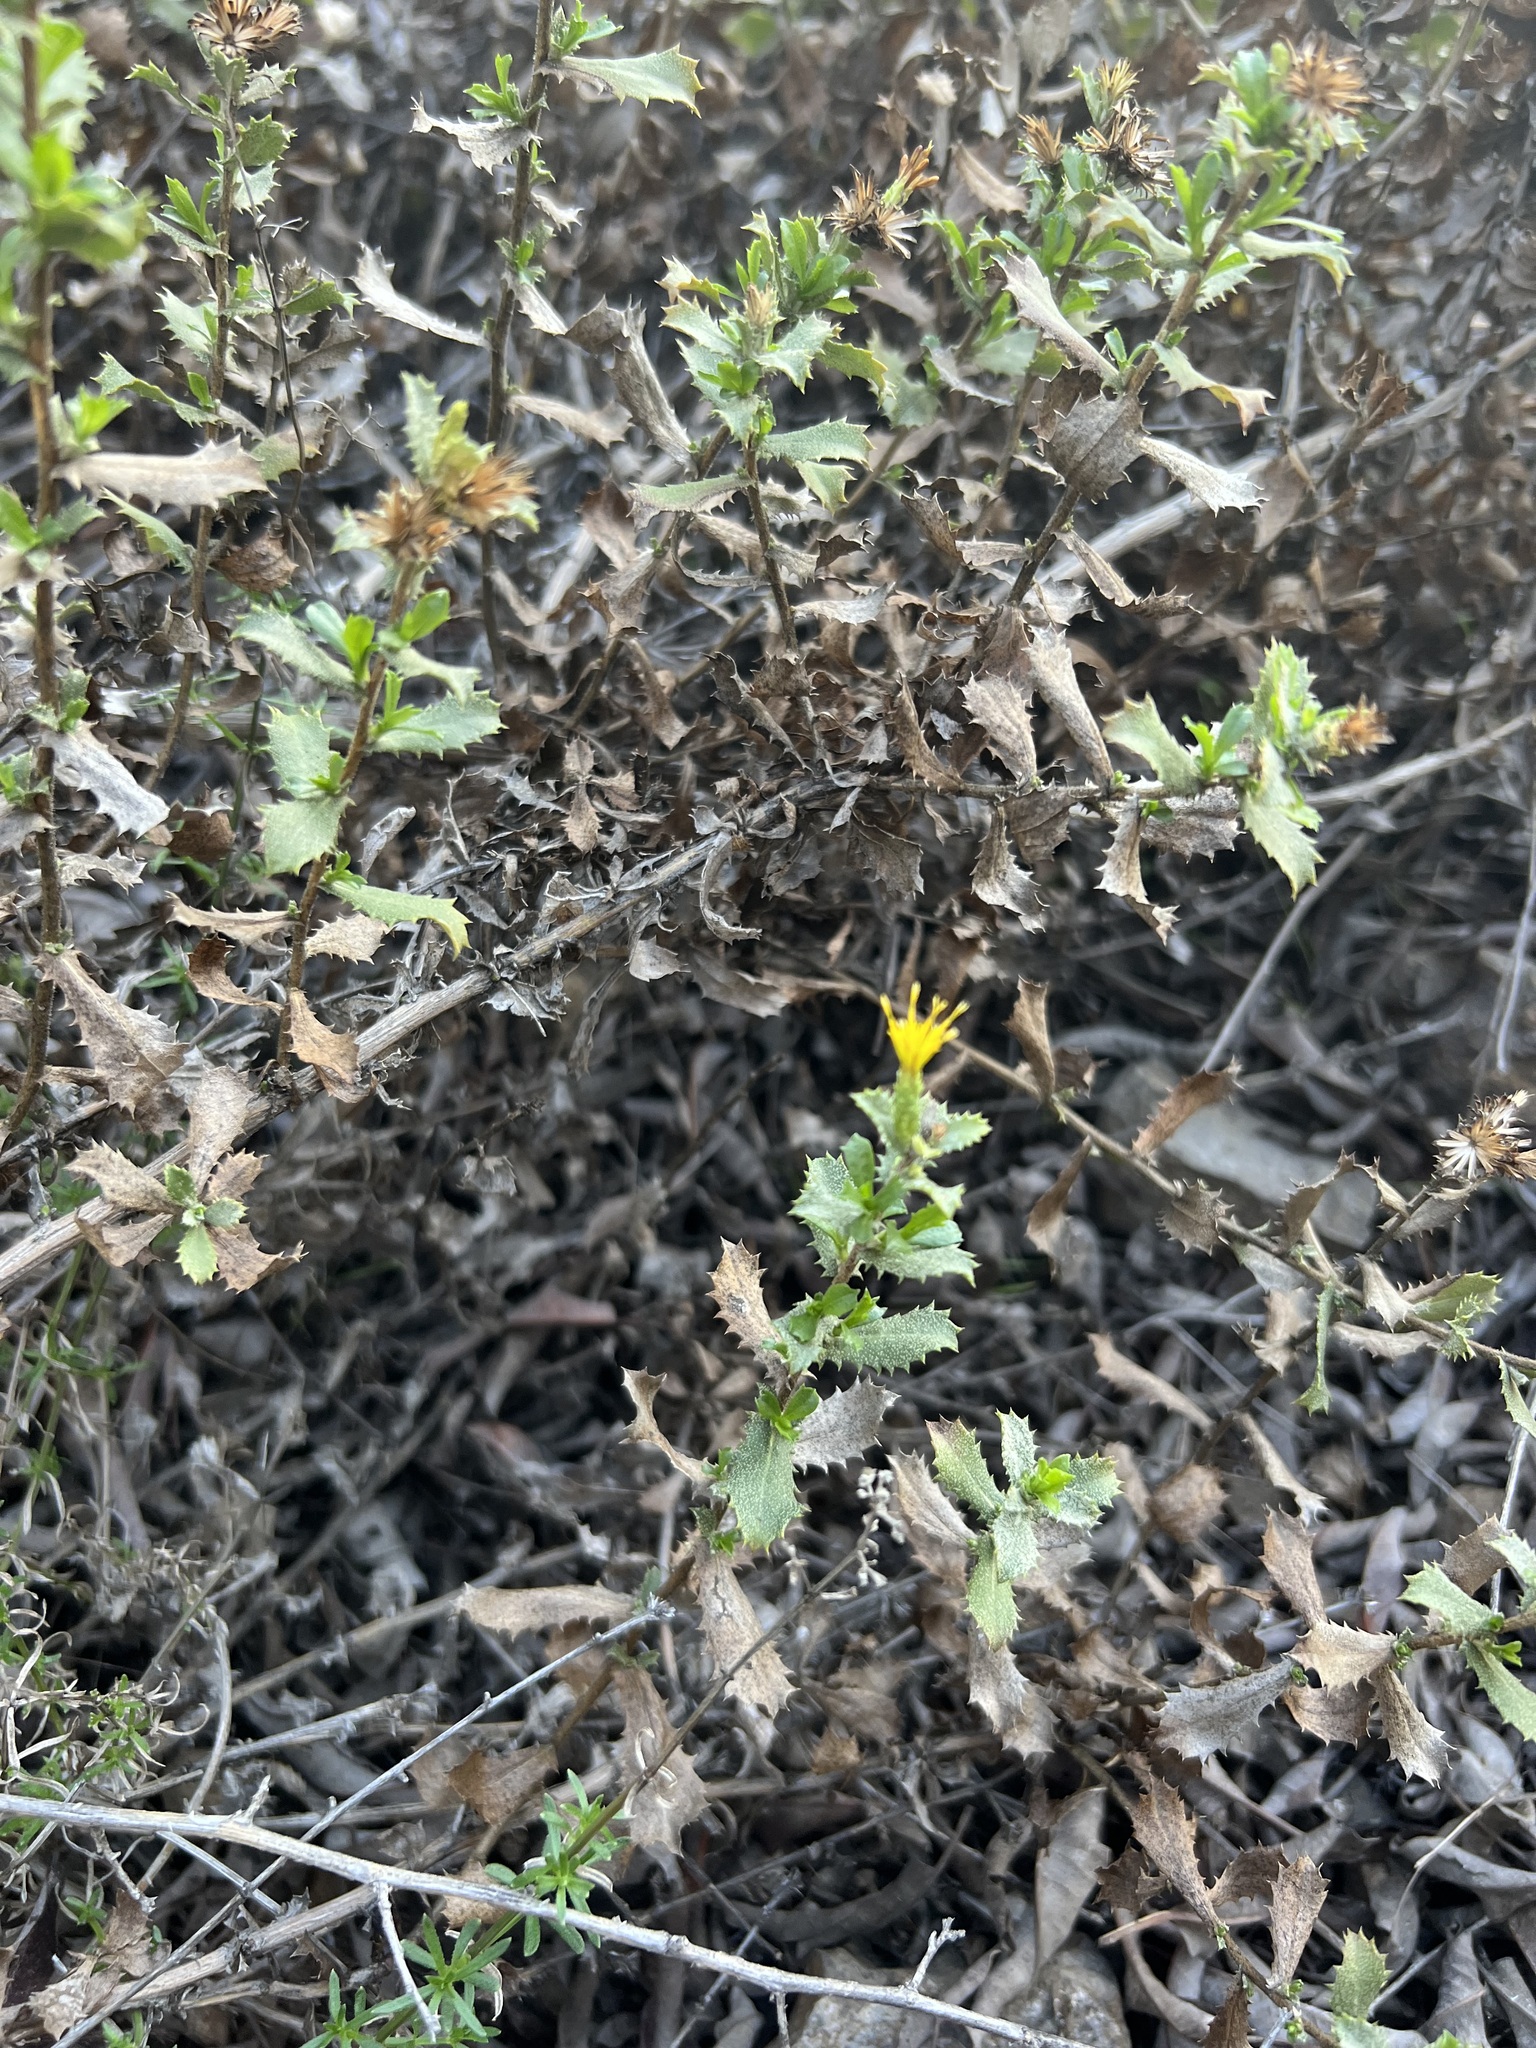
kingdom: Plantae
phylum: Tracheophyta
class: Magnoliopsida
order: Asterales
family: Asteraceae
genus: Hazardia
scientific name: Hazardia squarrosa
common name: Saw-tooth goldenbush
